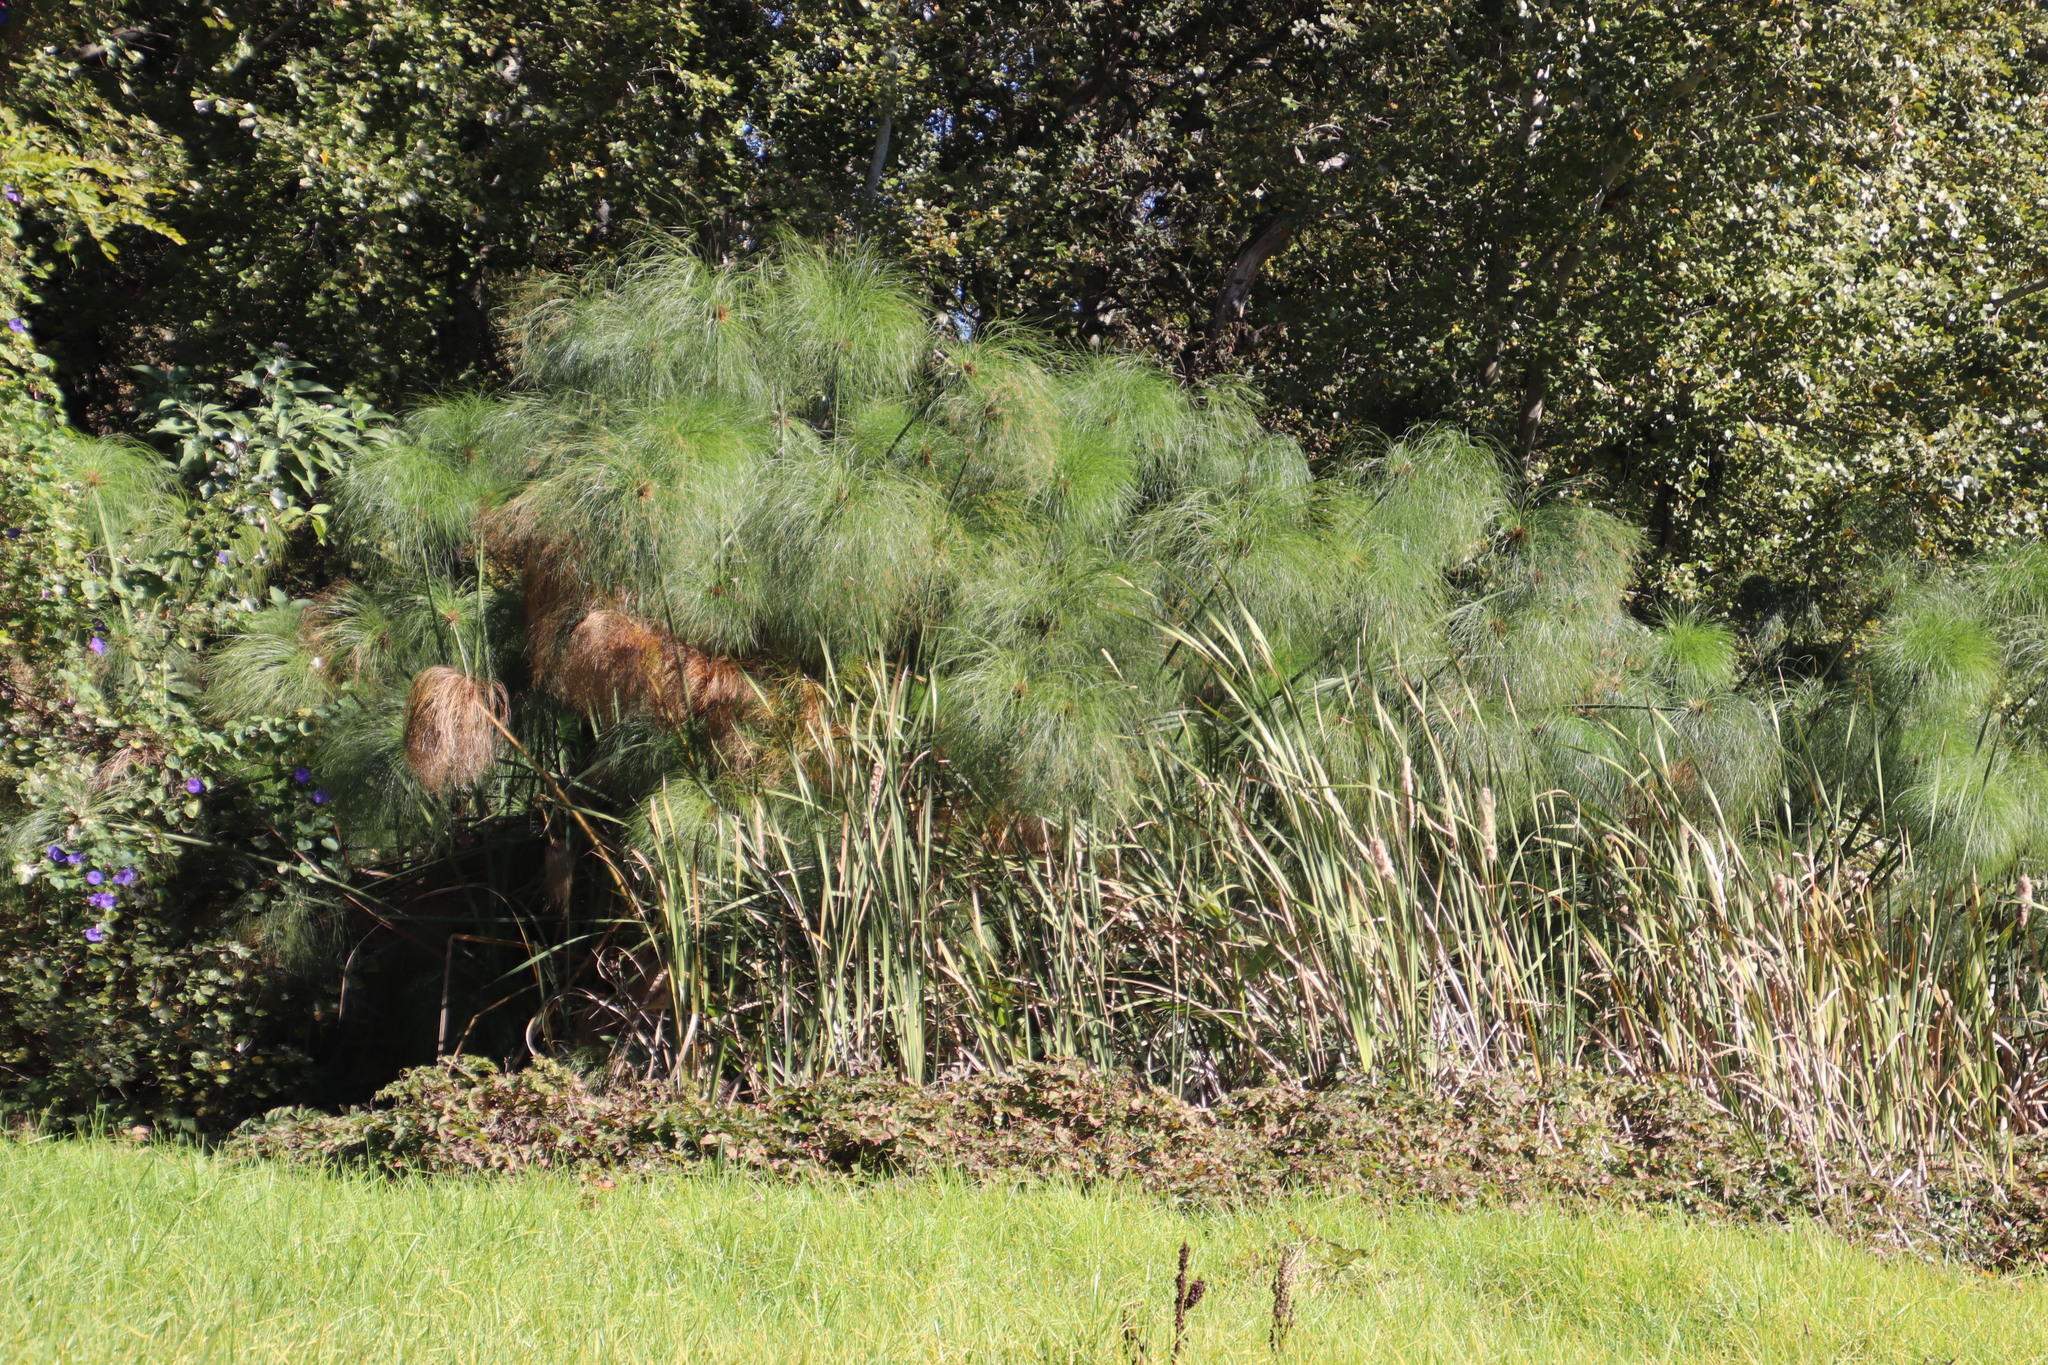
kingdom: Plantae
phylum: Tracheophyta
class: Liliopsida
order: Poales
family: Cyperaceae
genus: Cyperus
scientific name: Cyperus papyrus
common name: Papyrus
